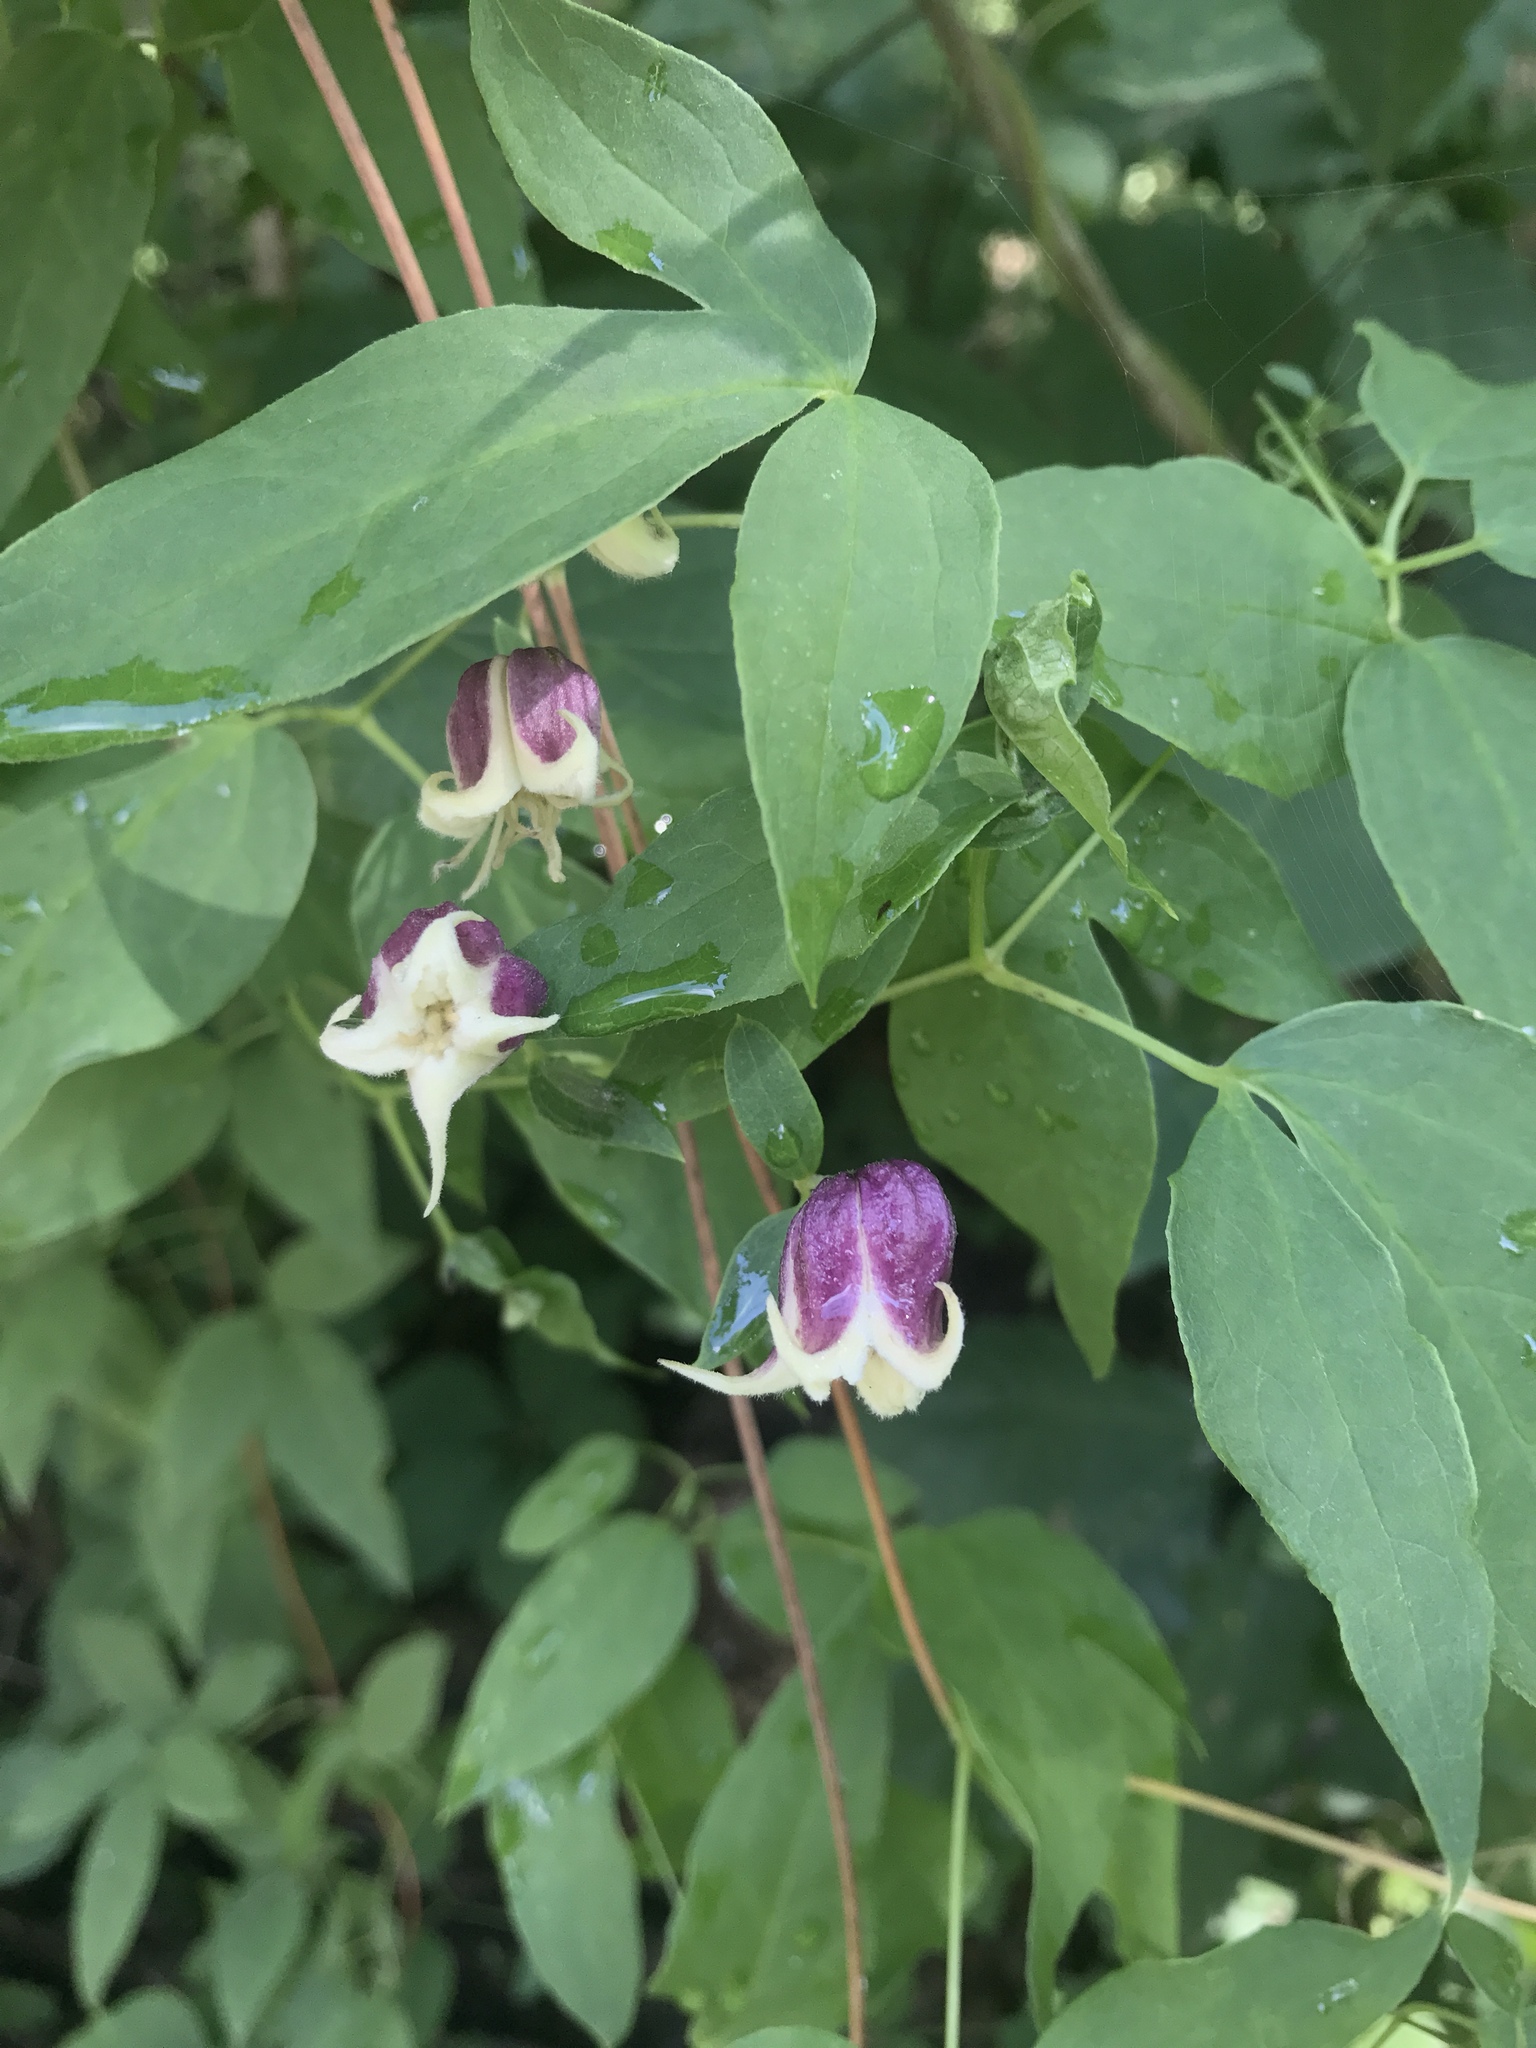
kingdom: Plantae
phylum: Tracheophyta
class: Magnoliopsida
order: Ranunculales
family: Ranunculaceae
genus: Clematis
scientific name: Clematis viorna
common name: Leather-flower
